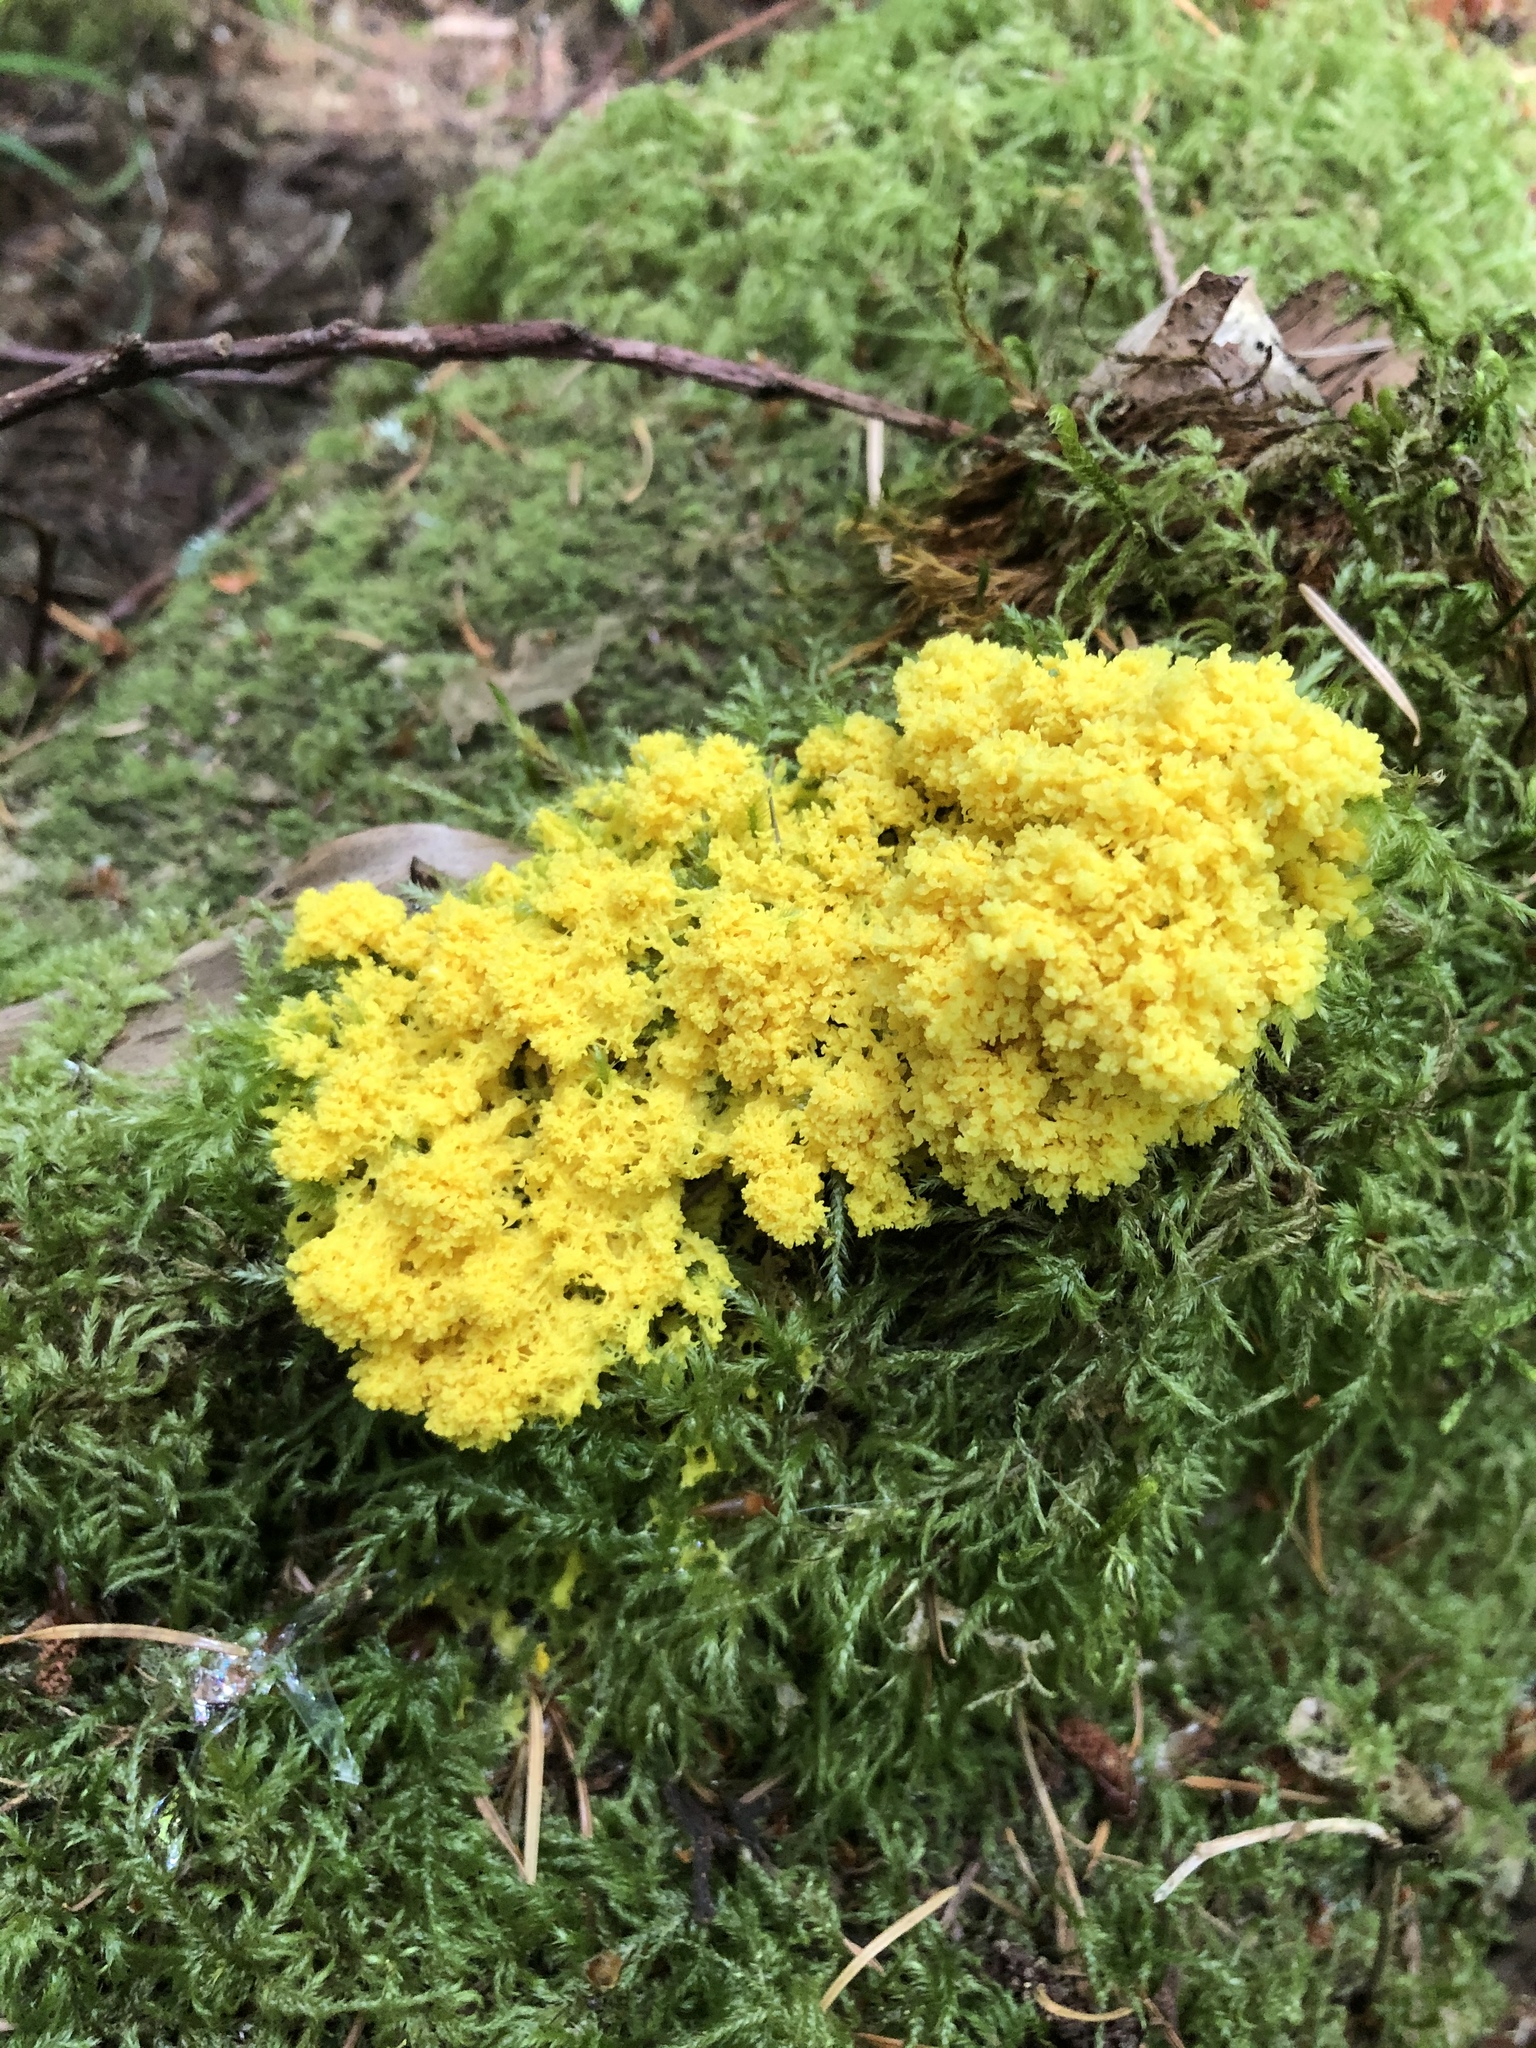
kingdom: Protozoa
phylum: Mycetozoa
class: Myxomycetes
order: Physarales
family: Physaraceae
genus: Fuligo
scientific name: Fuligo septica
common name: Dog vomit slime mold
